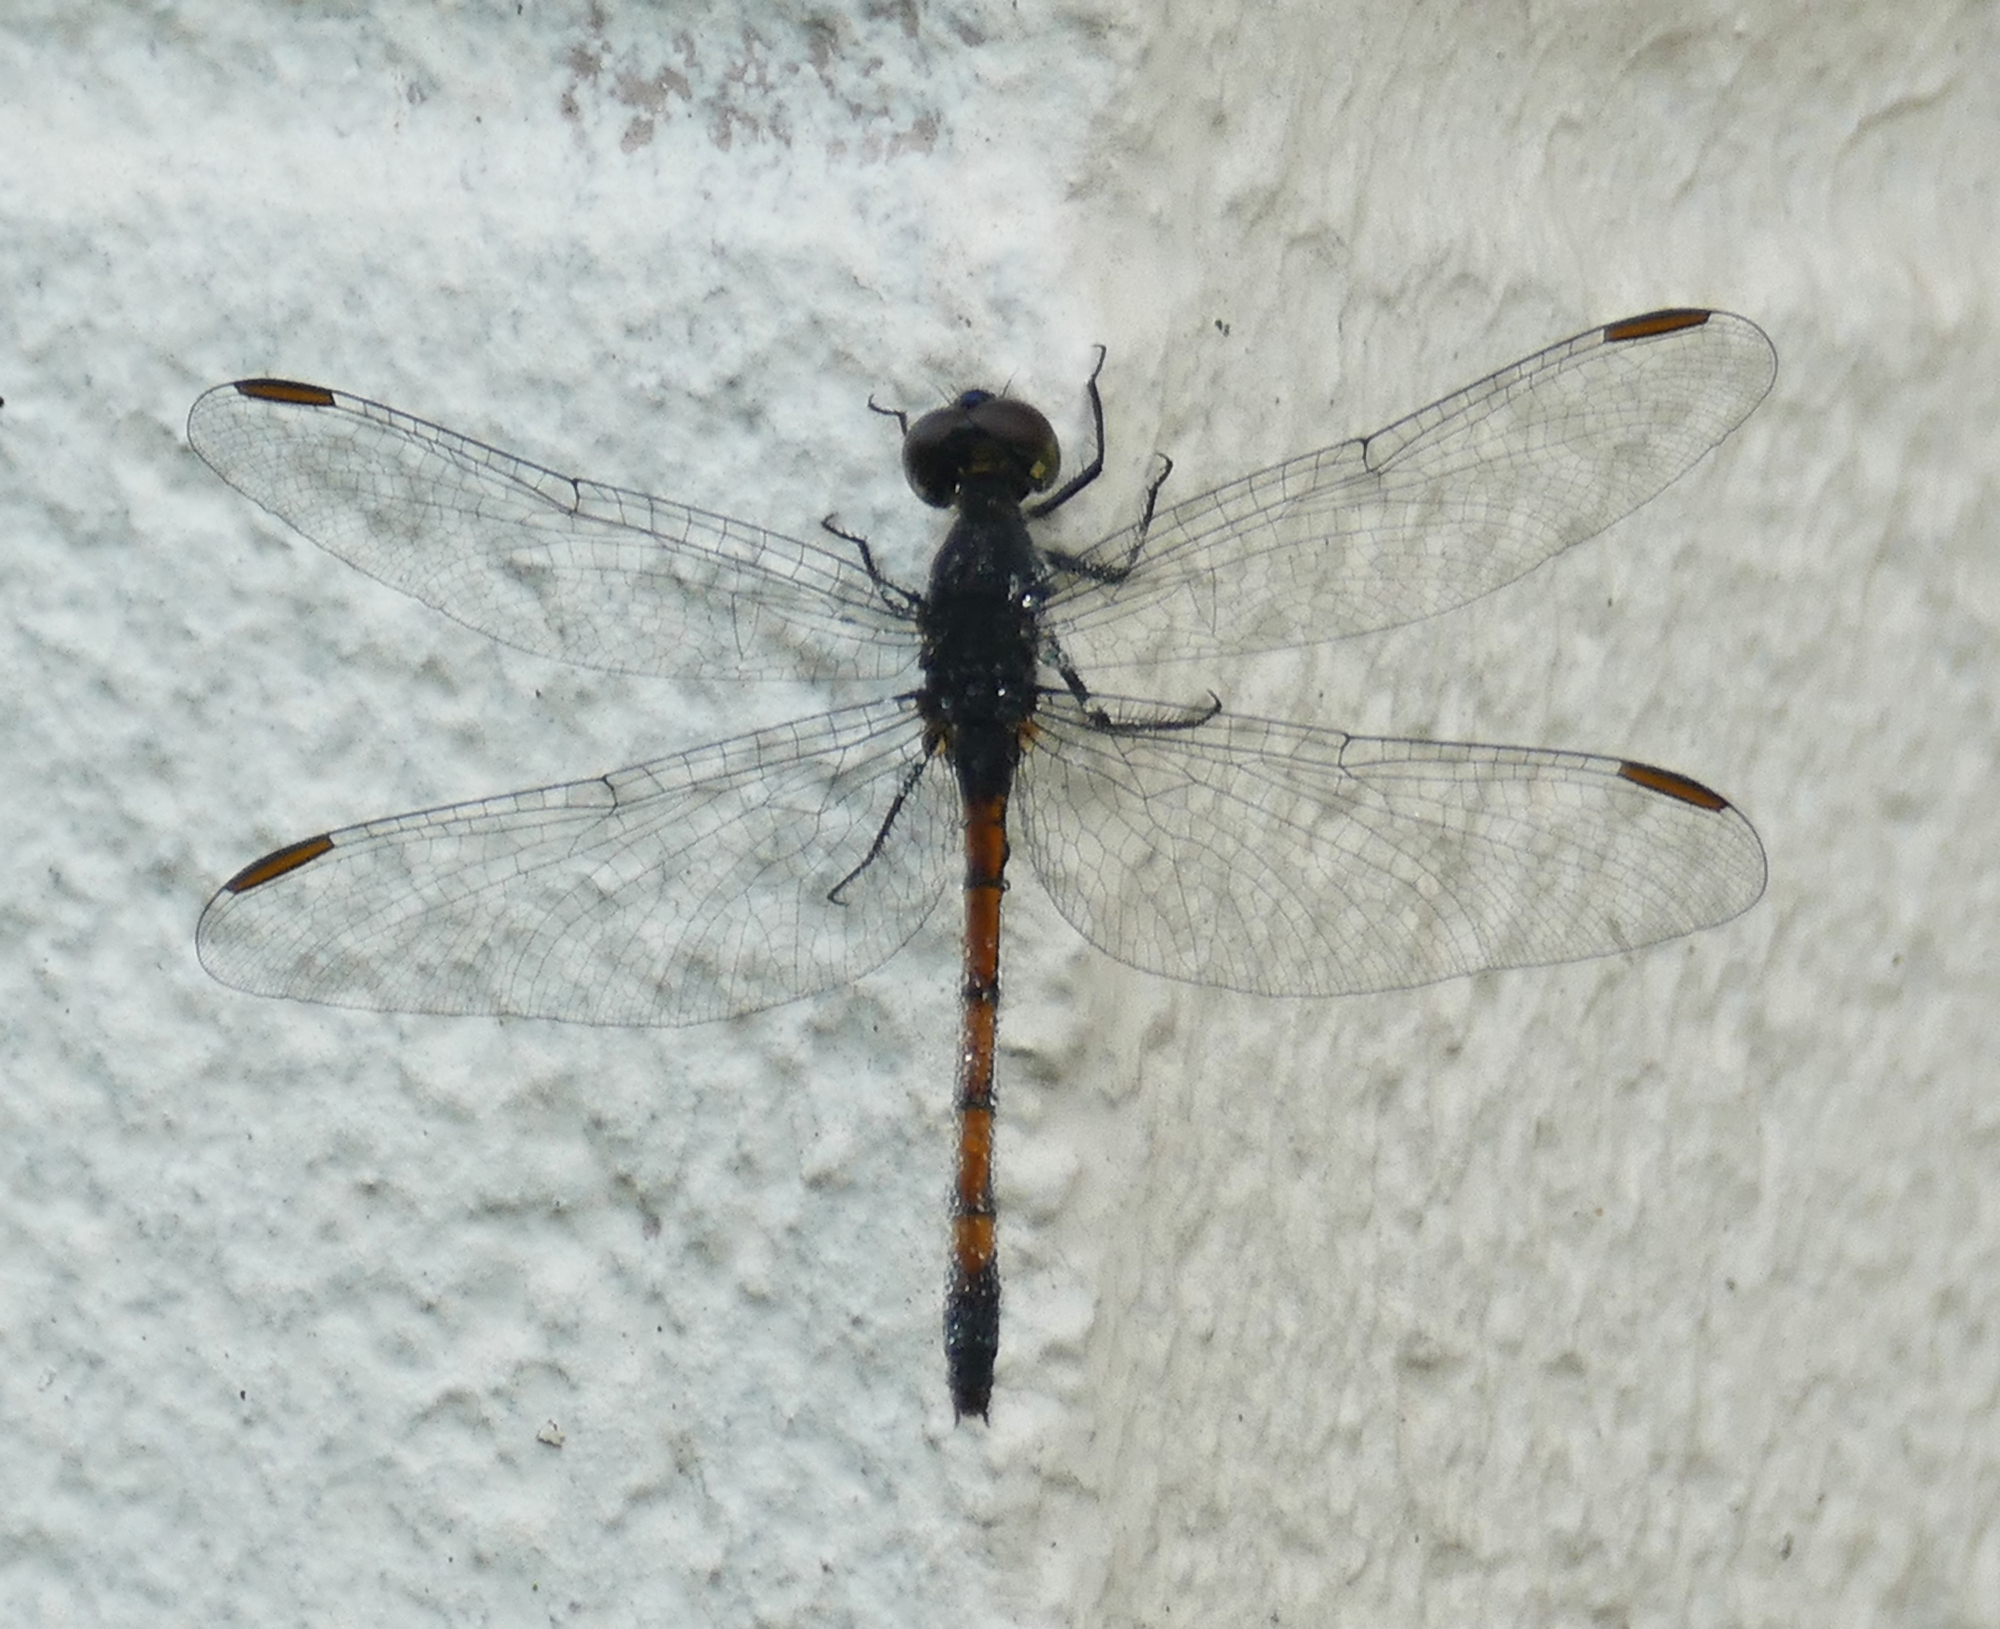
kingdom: Animalia
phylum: Arthropoda
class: Insecta
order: Odonata
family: Libellulidae
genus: Erythrodiplax
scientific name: Erythrodiplax berenice
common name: Seaside dragonlet
